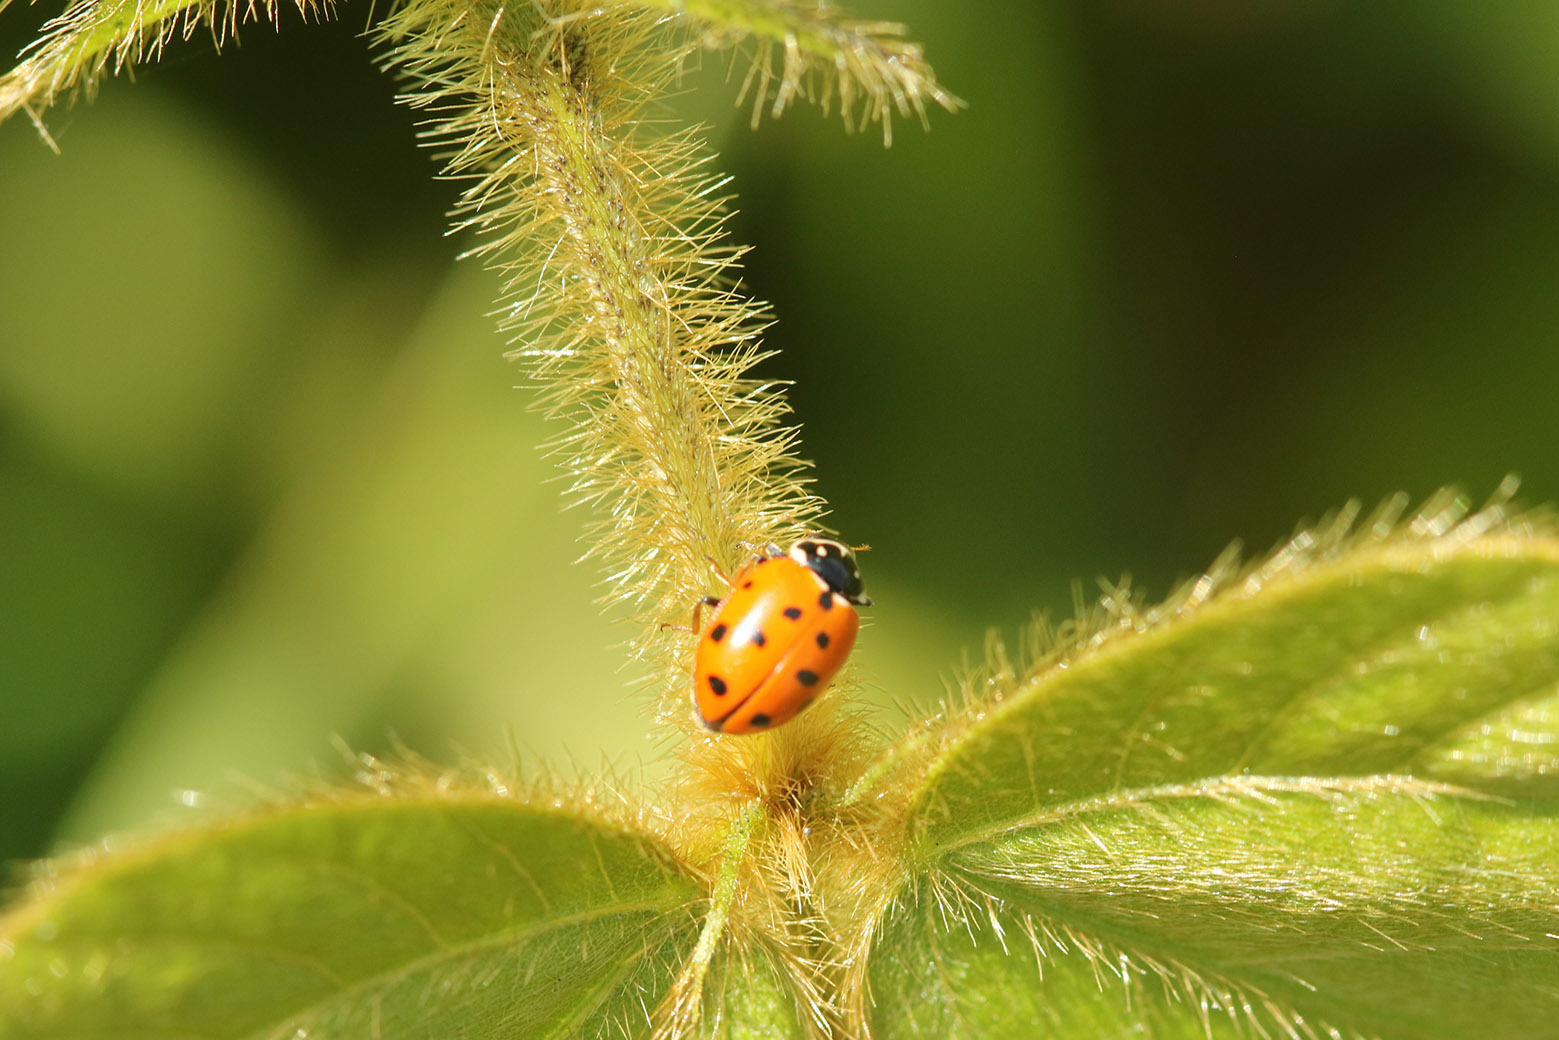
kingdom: Animalia
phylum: Arthropoda
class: Insecta
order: Coleoptera
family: Coccinellidae
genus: Hippodamia
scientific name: Hippodamia variegata
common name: Ladybird beetle
